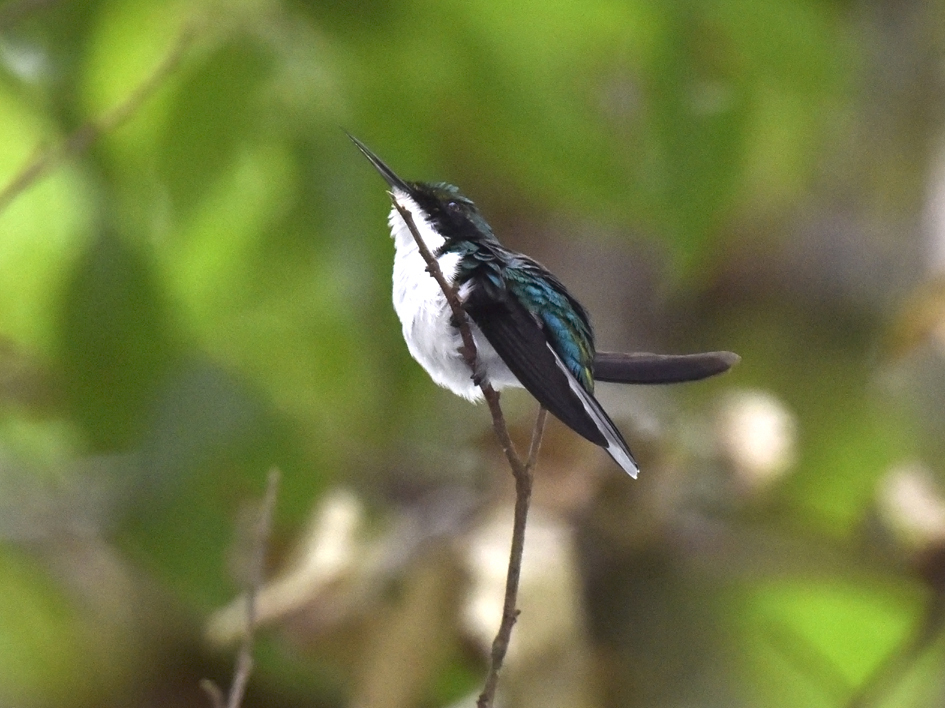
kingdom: Animalia
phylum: Chordata
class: Aves
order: Apodiformes
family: Trochilidae
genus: Heliothryx
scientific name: Heliothryx auritus
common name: Black-eared fairy
